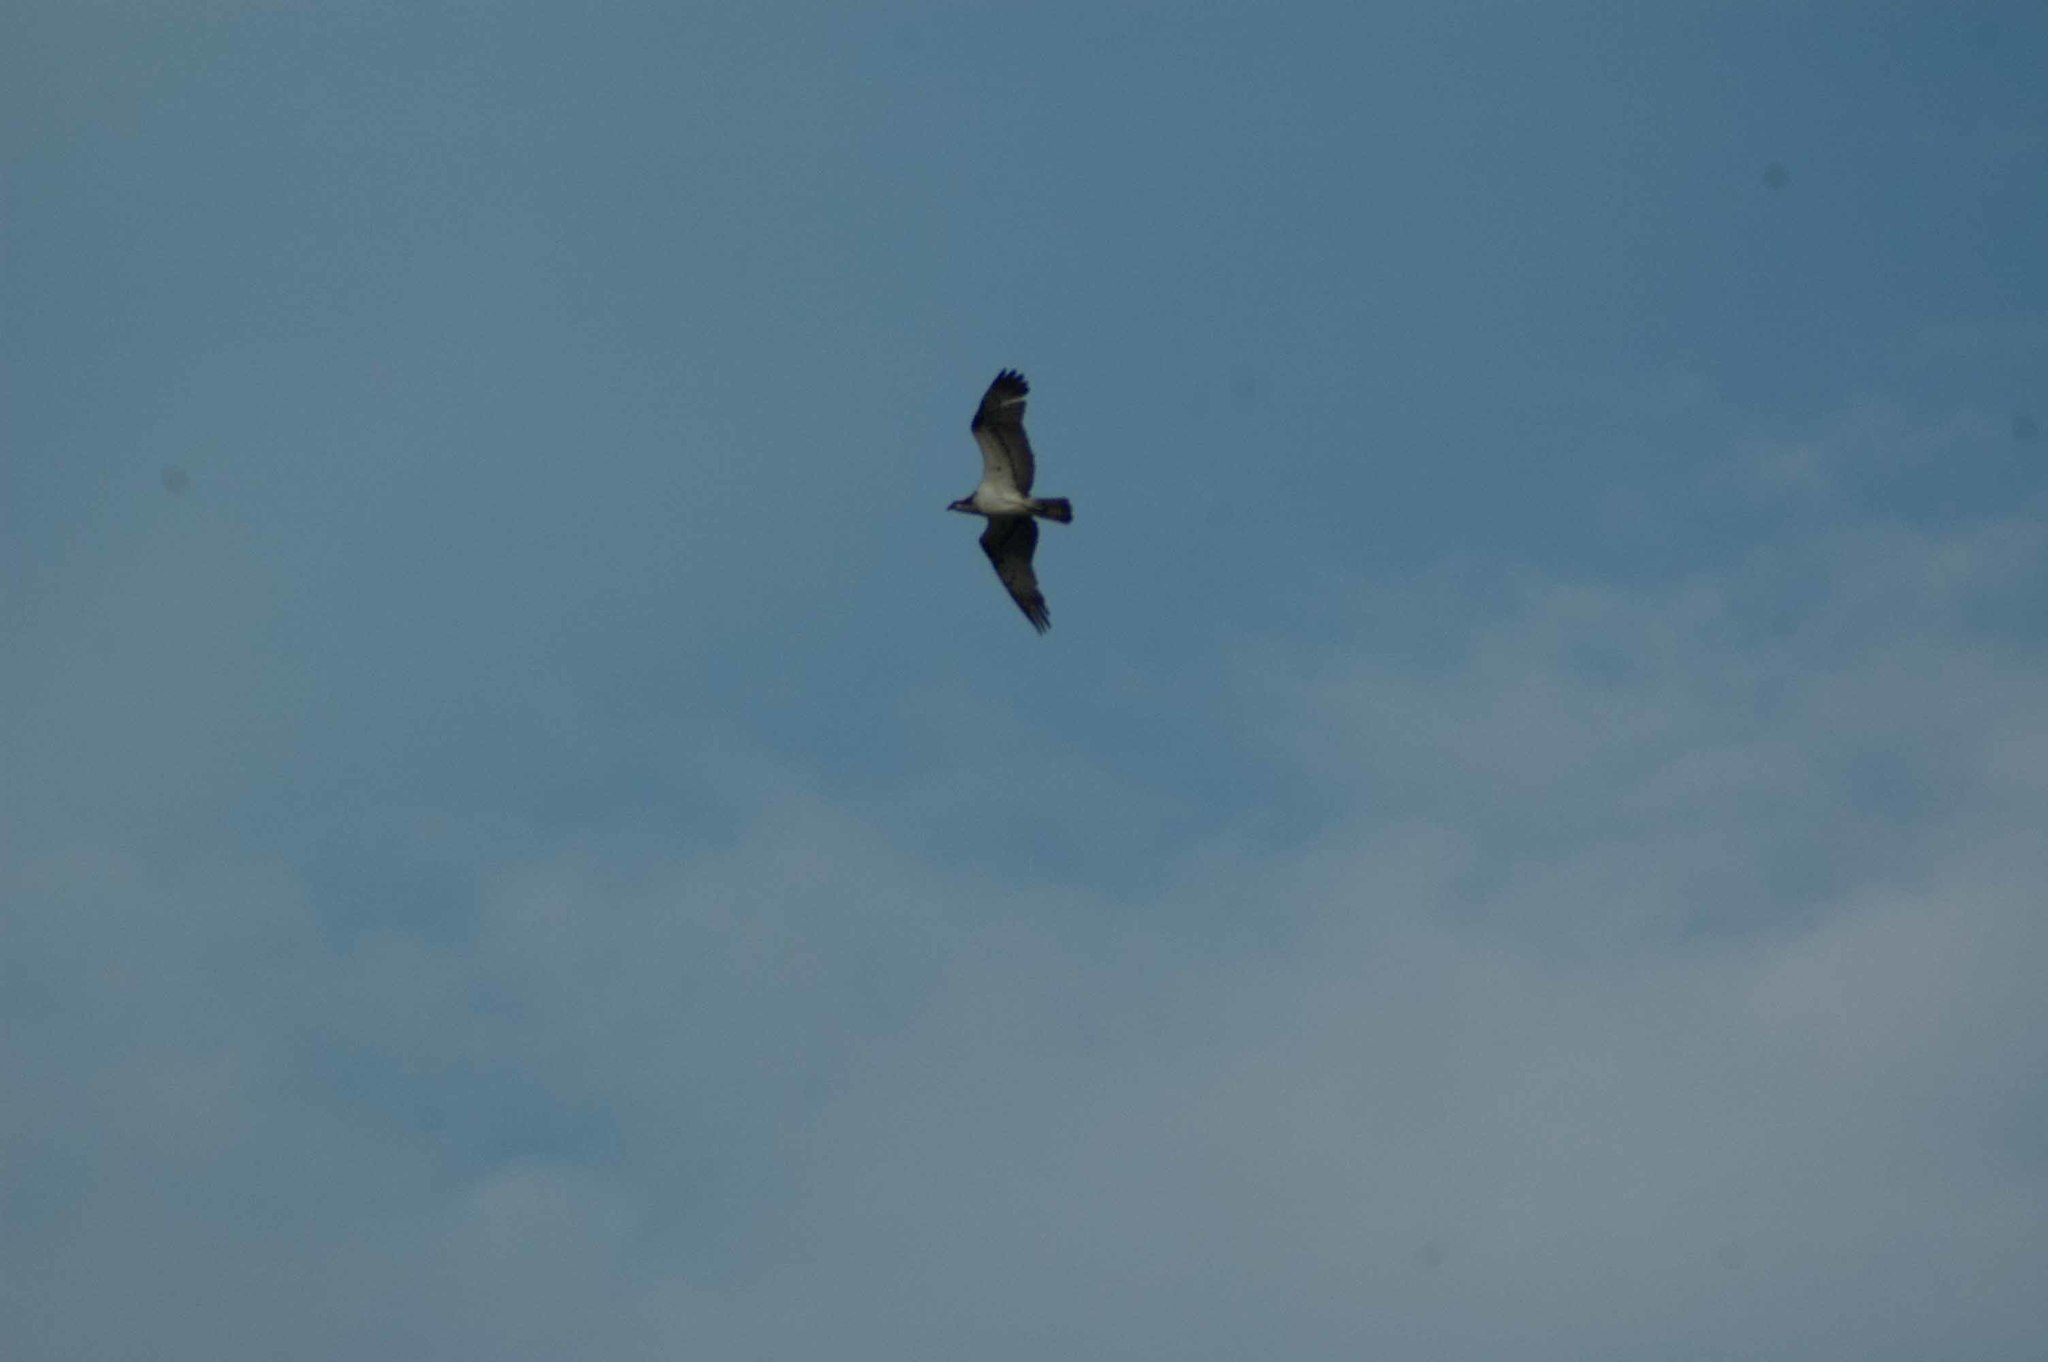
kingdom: Animalia
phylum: Chordata
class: Aves
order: Accipitriformes
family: Pandionidae
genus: Pandion
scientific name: Pandion haliaetus
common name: Osprey
